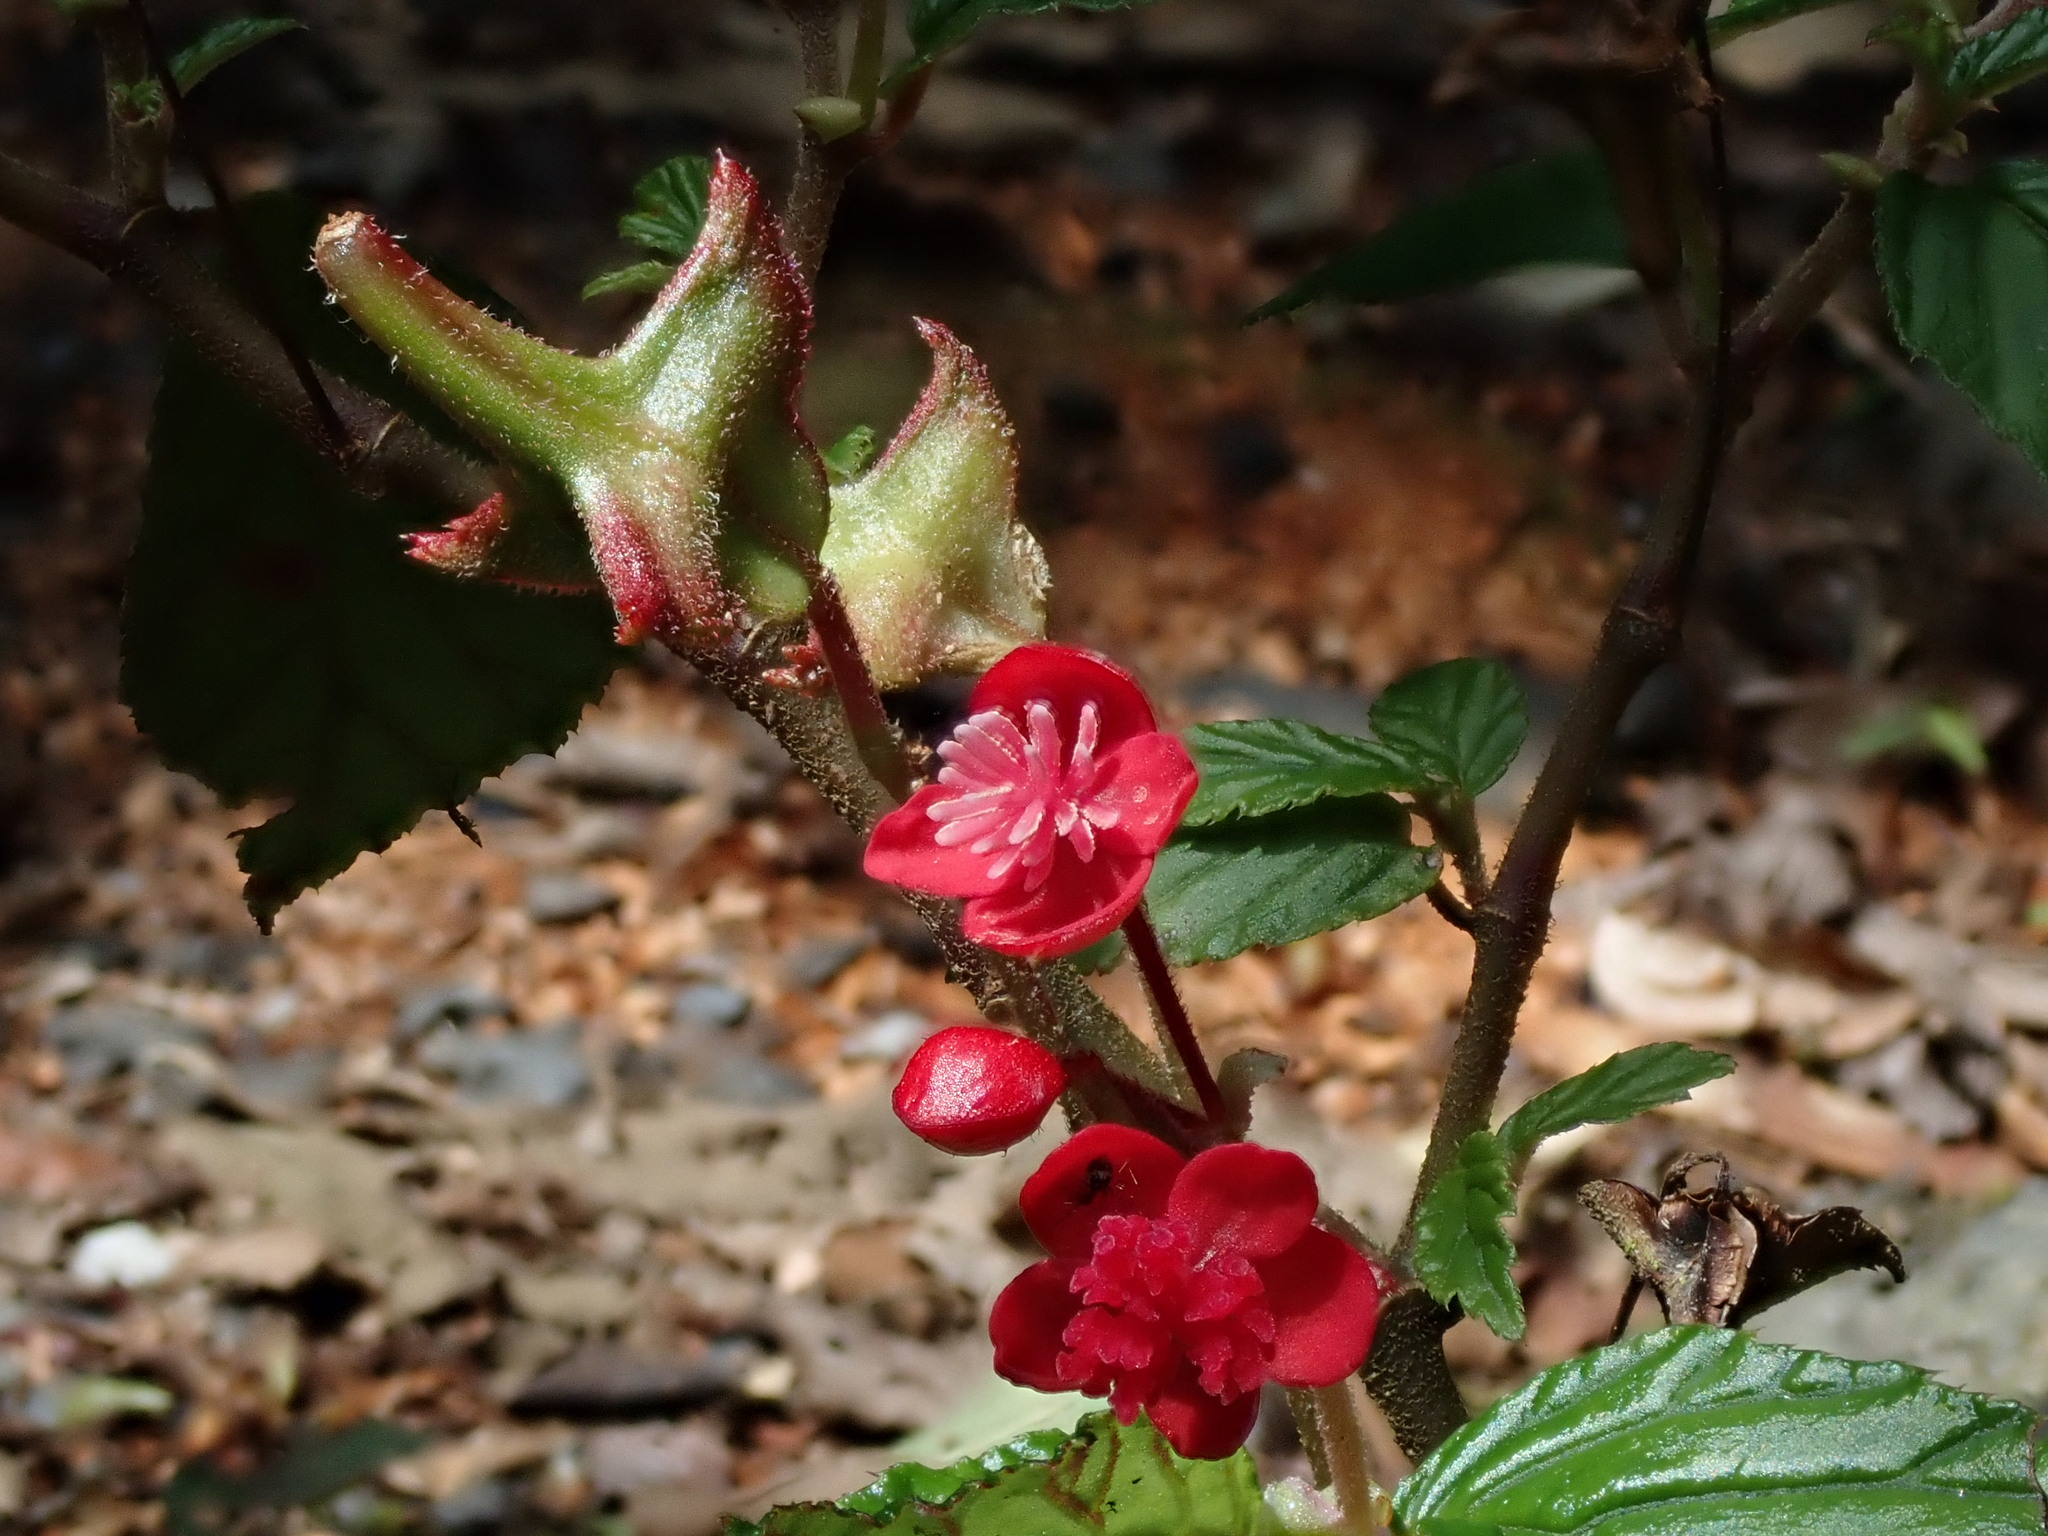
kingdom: Plantae
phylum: Tracheophyta
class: Magnoliopsida
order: Cucurbitales
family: Begoniaceae
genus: Begonia
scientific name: Begonia urticae
